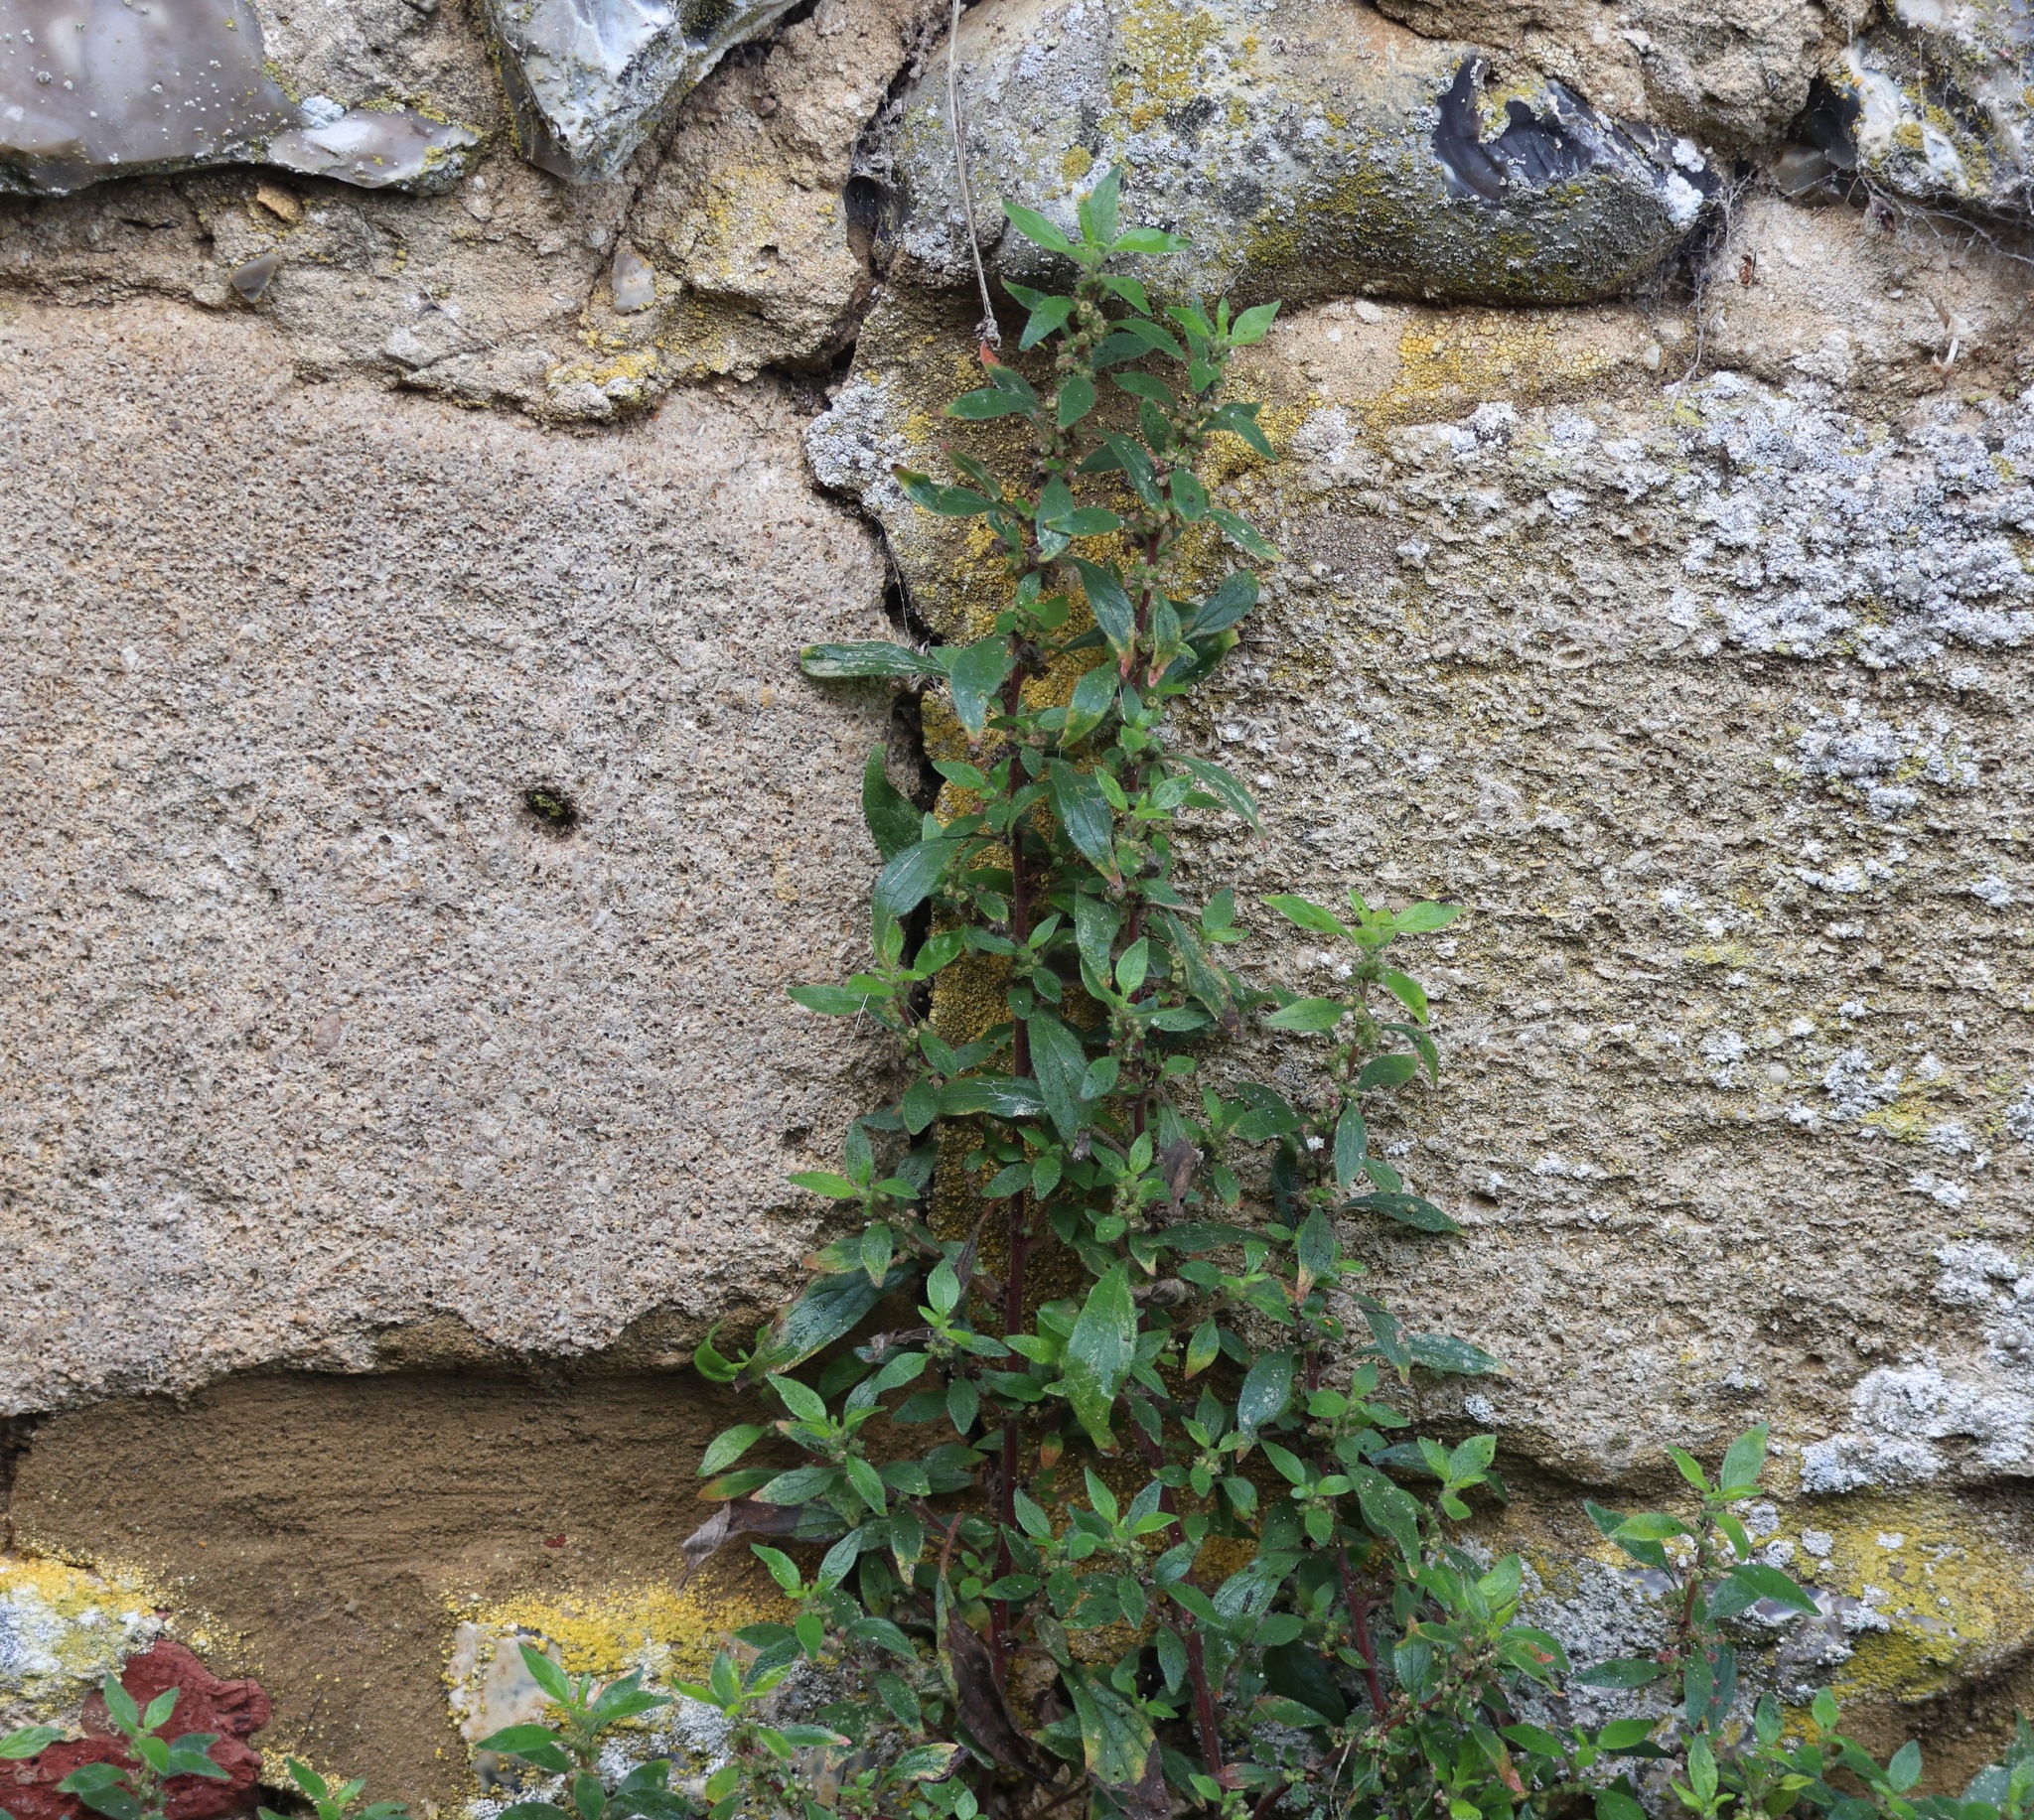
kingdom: Plantae
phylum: Tracheophyta
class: Magnoliopsida
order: Rosales
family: Urticaceae
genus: Parietaria
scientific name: Parietaria judaica
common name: Pellitory-of-the-wall
